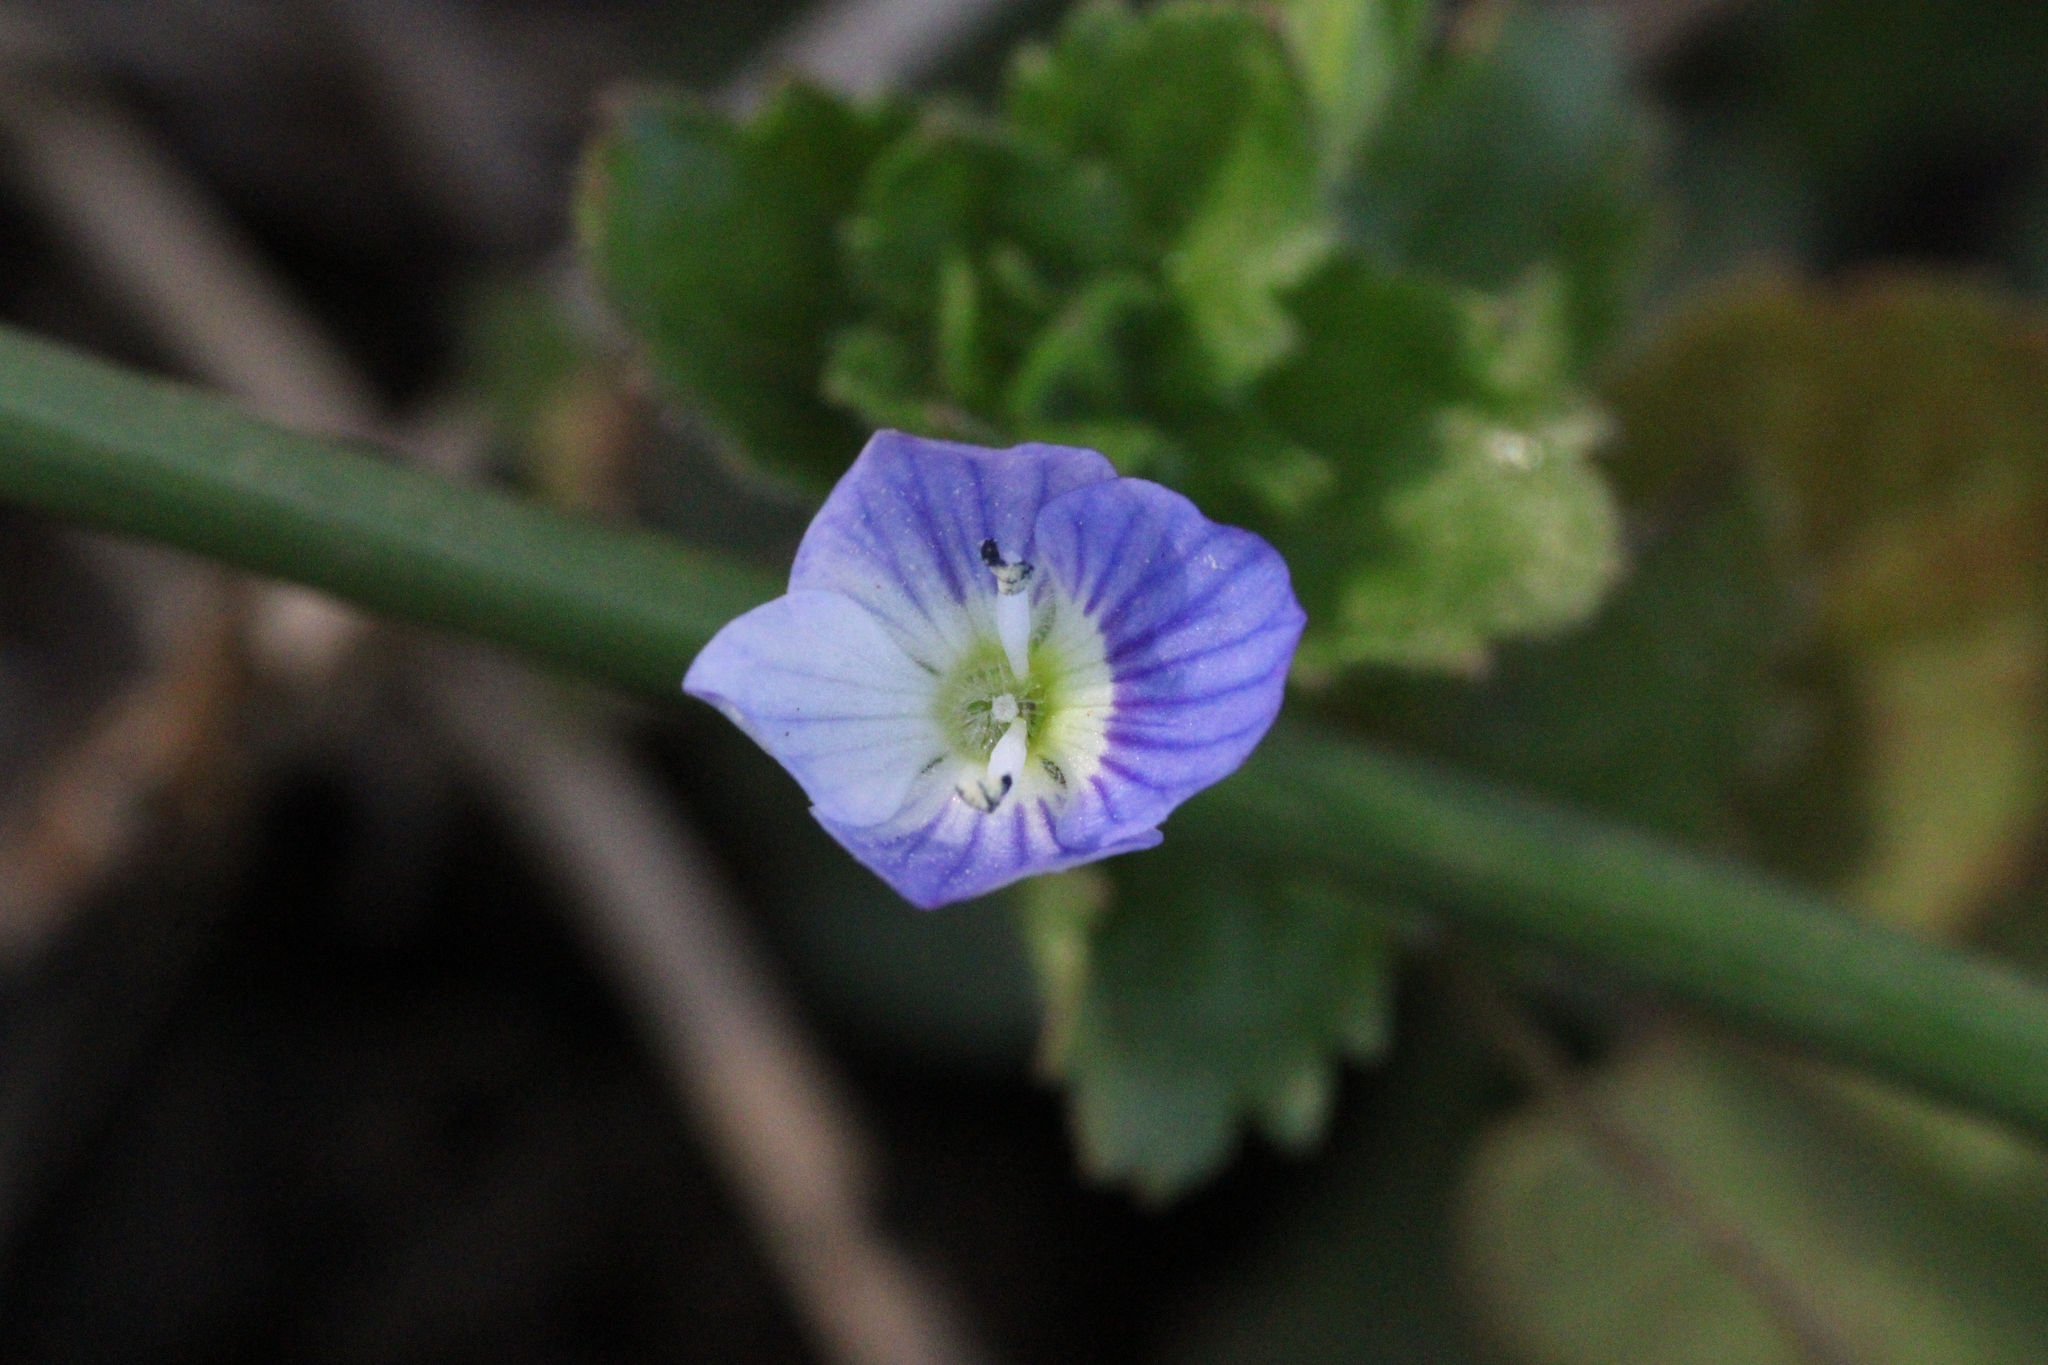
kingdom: Plantae
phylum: Tracheophyta
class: Magnoliopsida
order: Lamiales
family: Plantaginaceae
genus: Veronica
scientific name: Veronica persica
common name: Common field-speedwell
